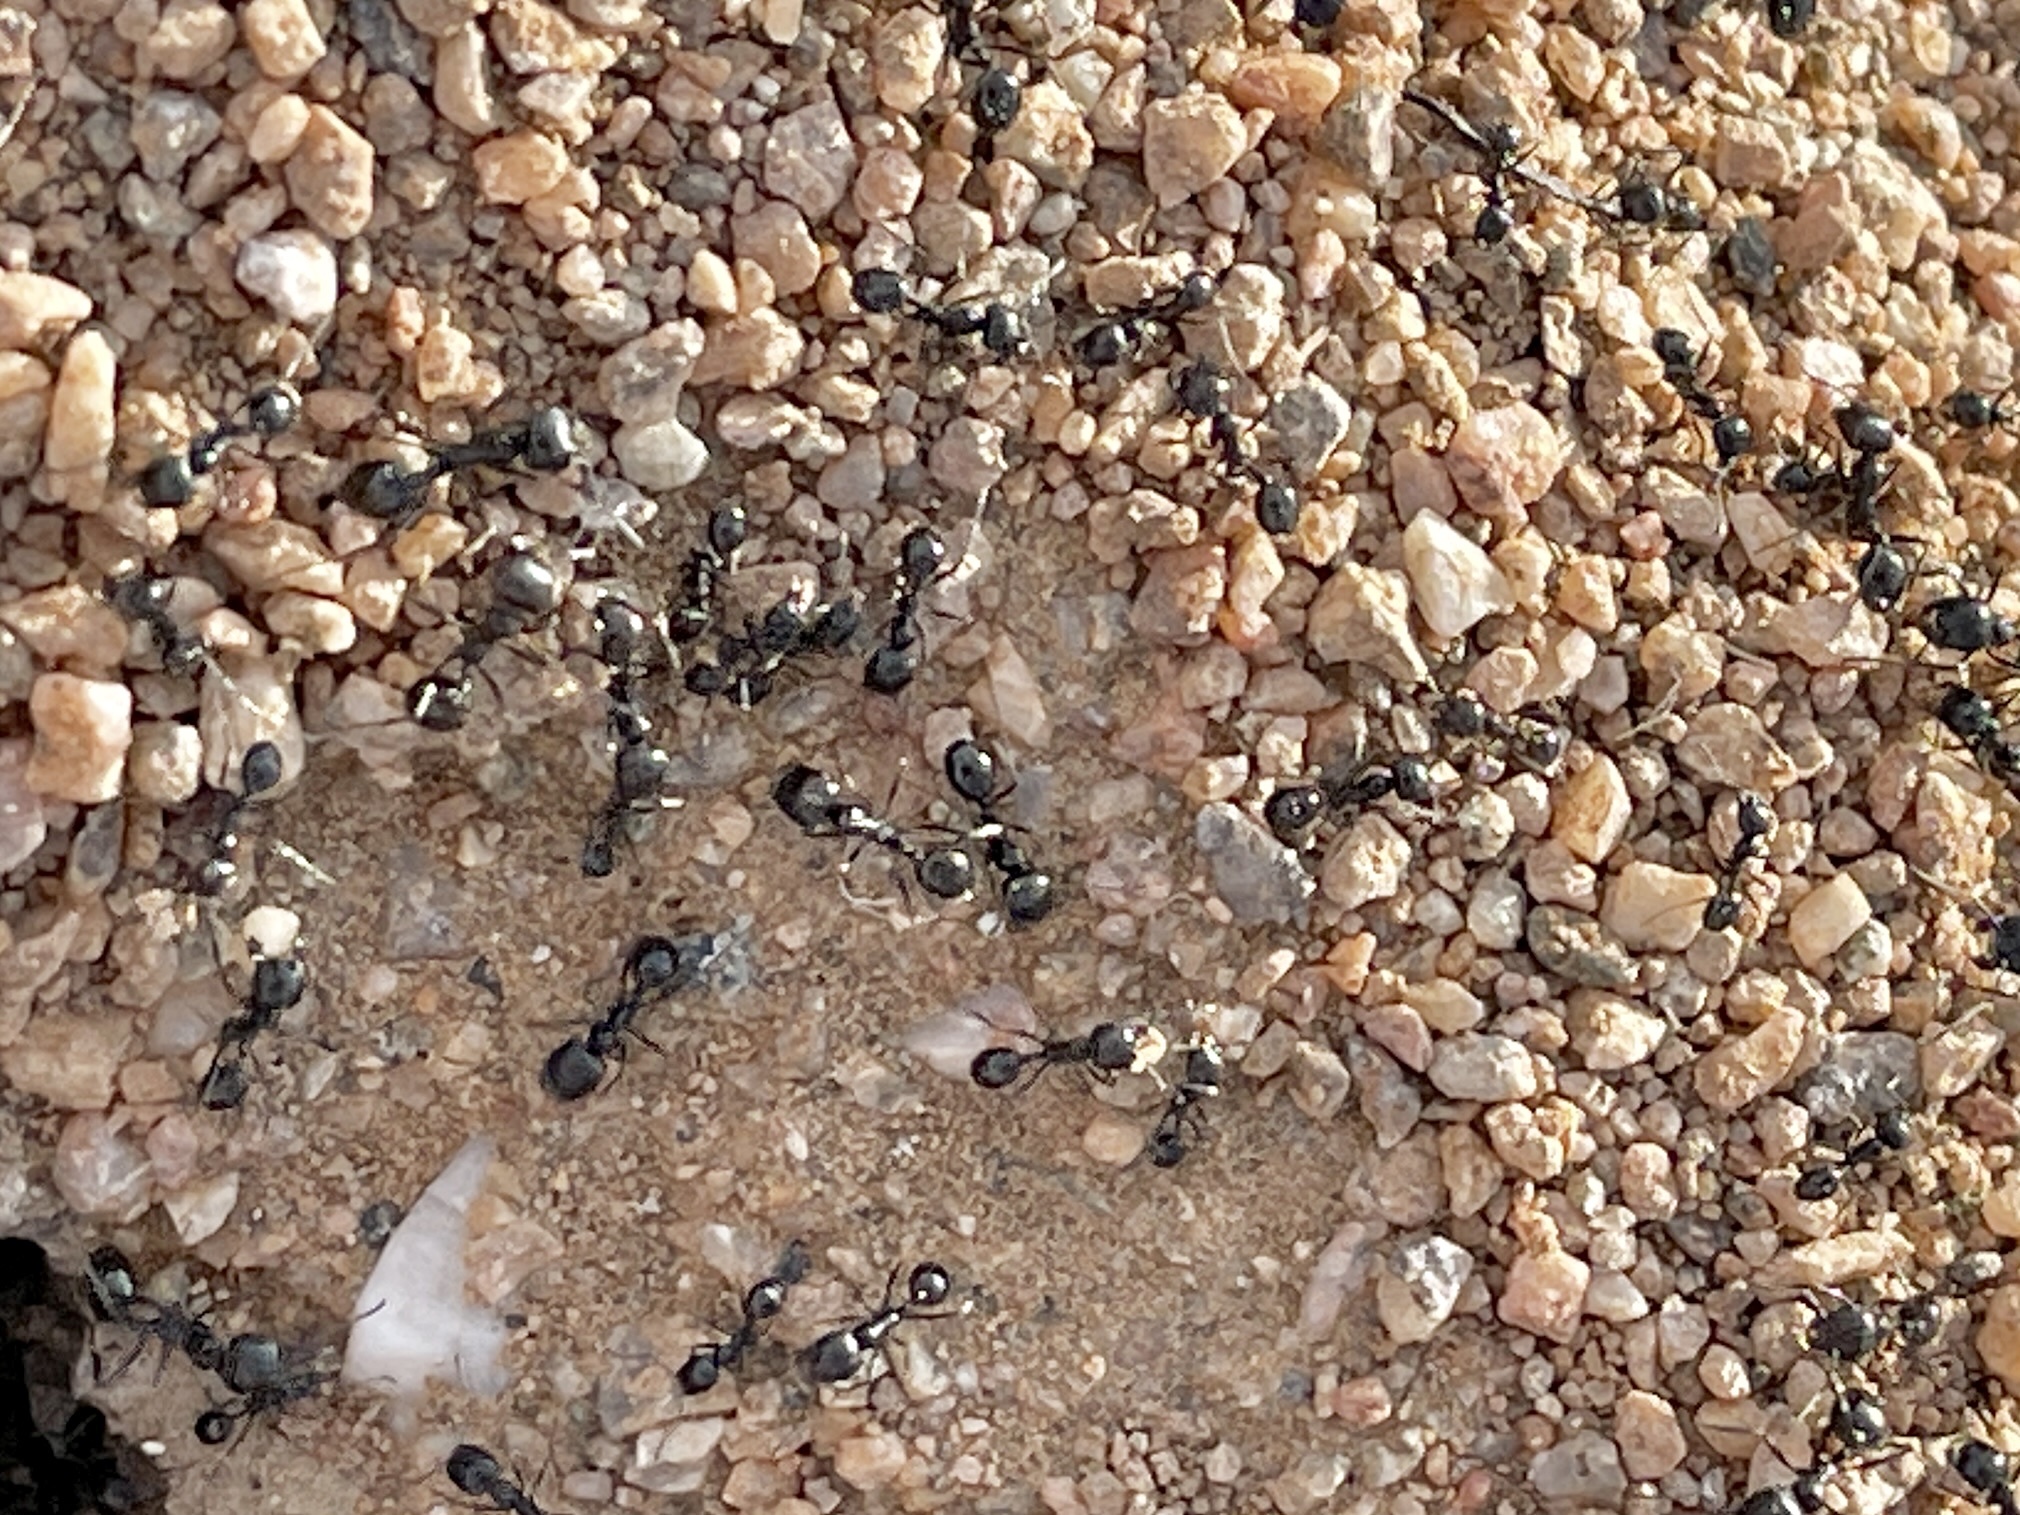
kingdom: Animalia
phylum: Arthropoda
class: Insecta
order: Hymenoptera
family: Formicidae
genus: Messor
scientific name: Messor pergandei
